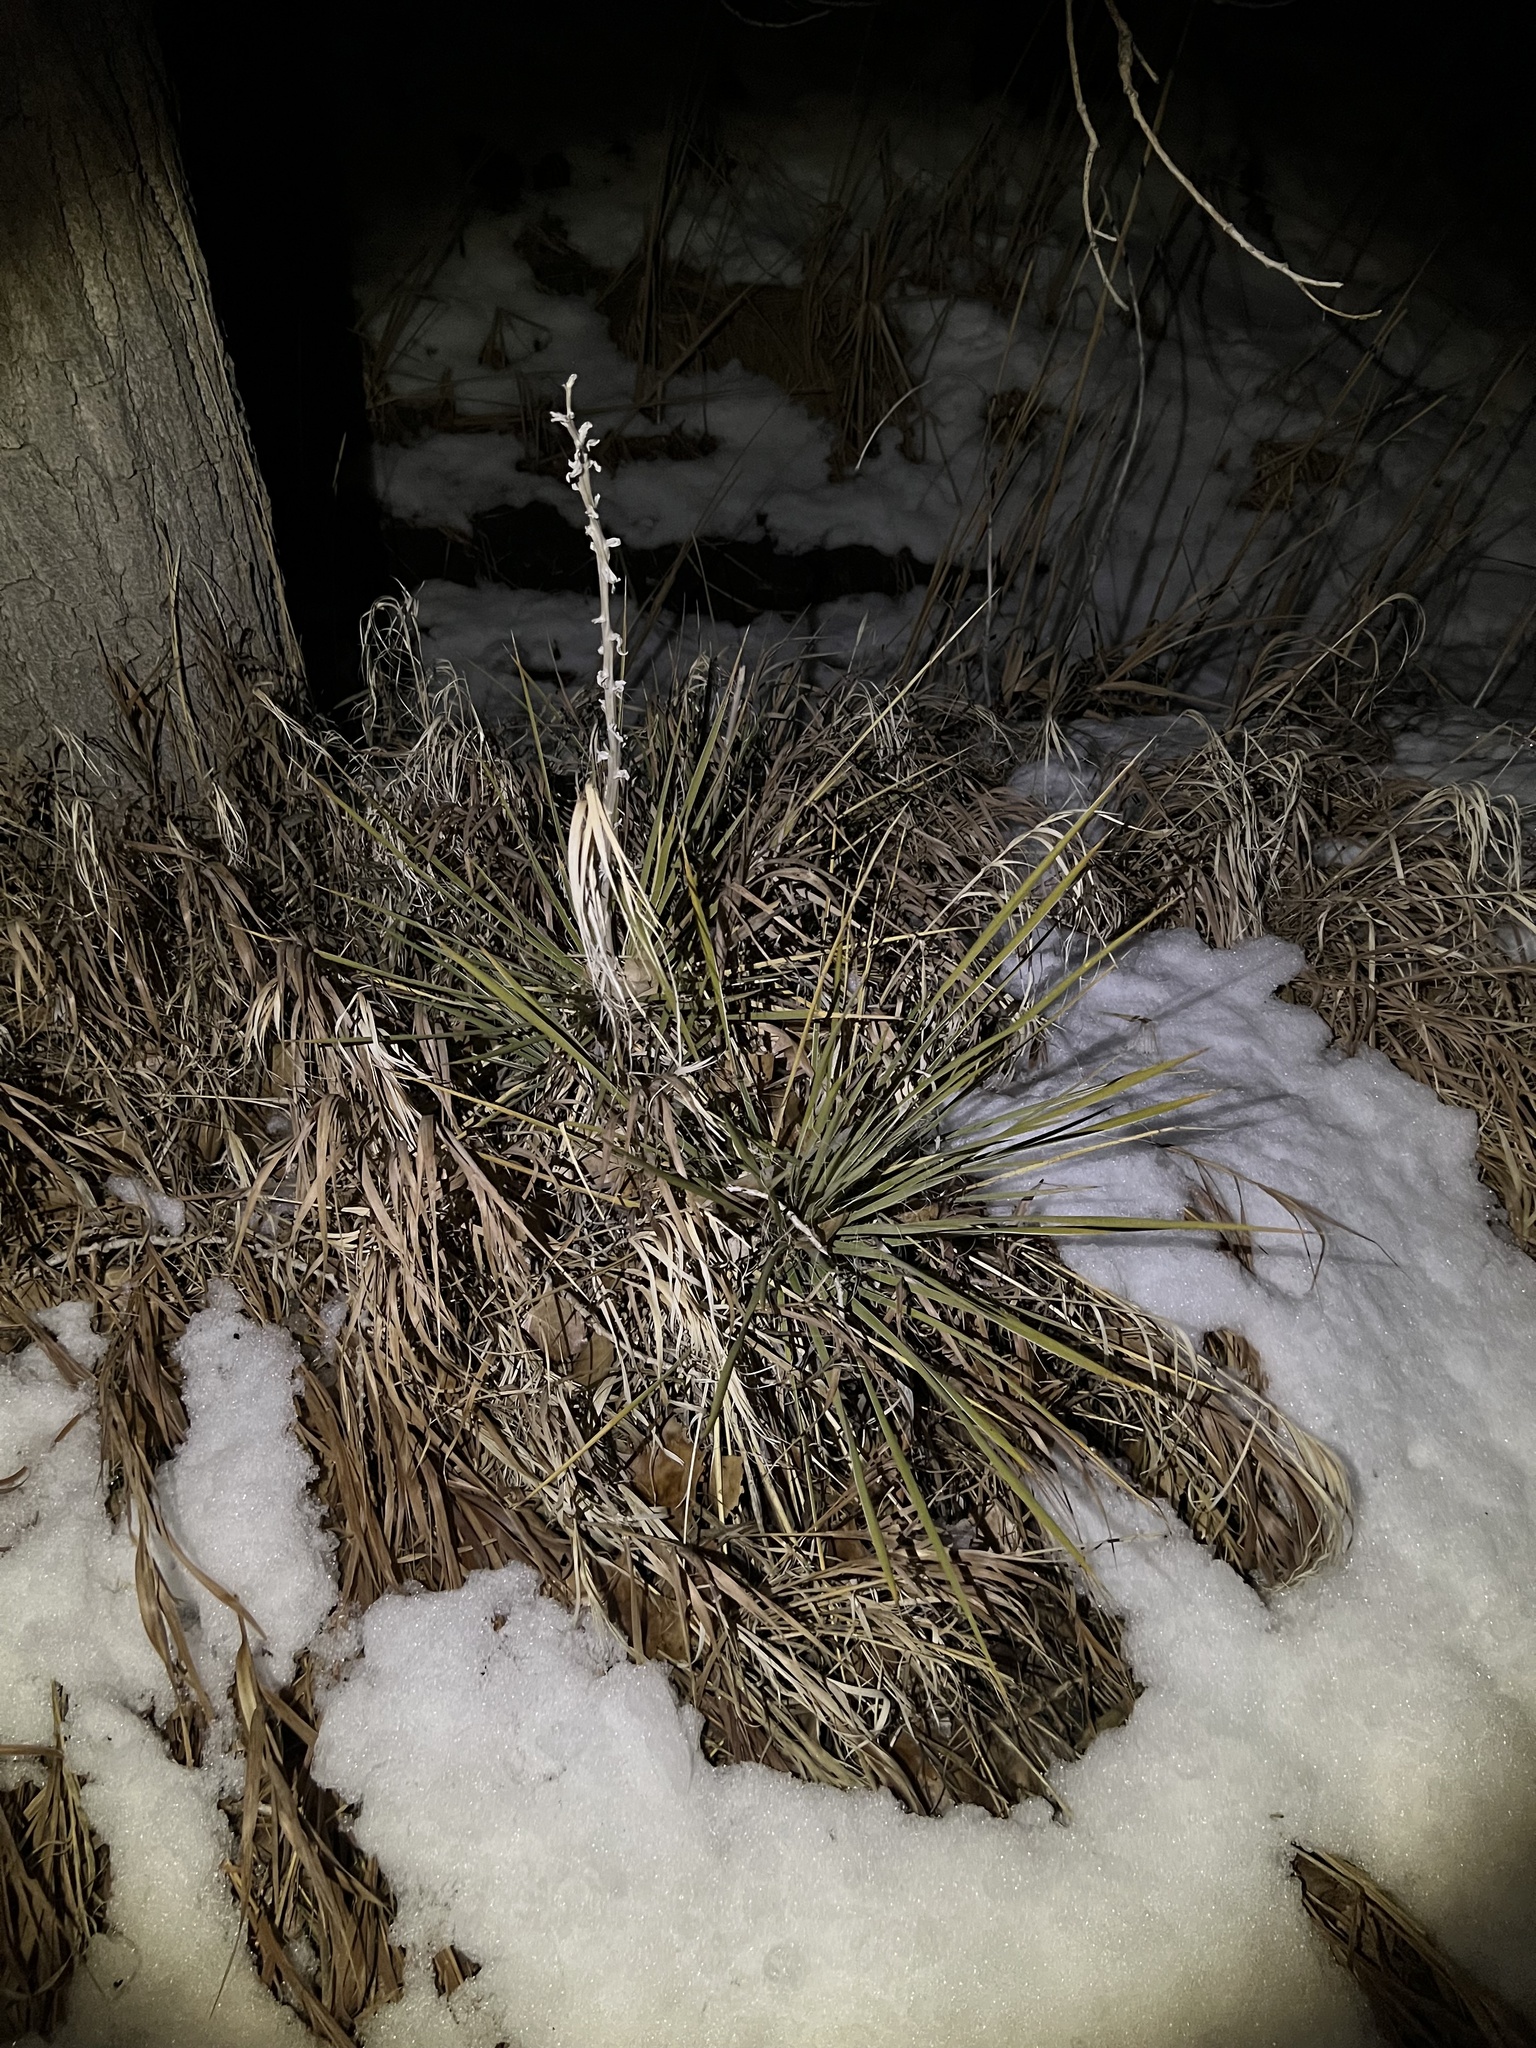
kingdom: Plantae
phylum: Tracheophyta
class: Liliopsida
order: Asparagales
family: Asparagaceae
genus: Yucca
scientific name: Yucca glauca
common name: Great plains yucca
